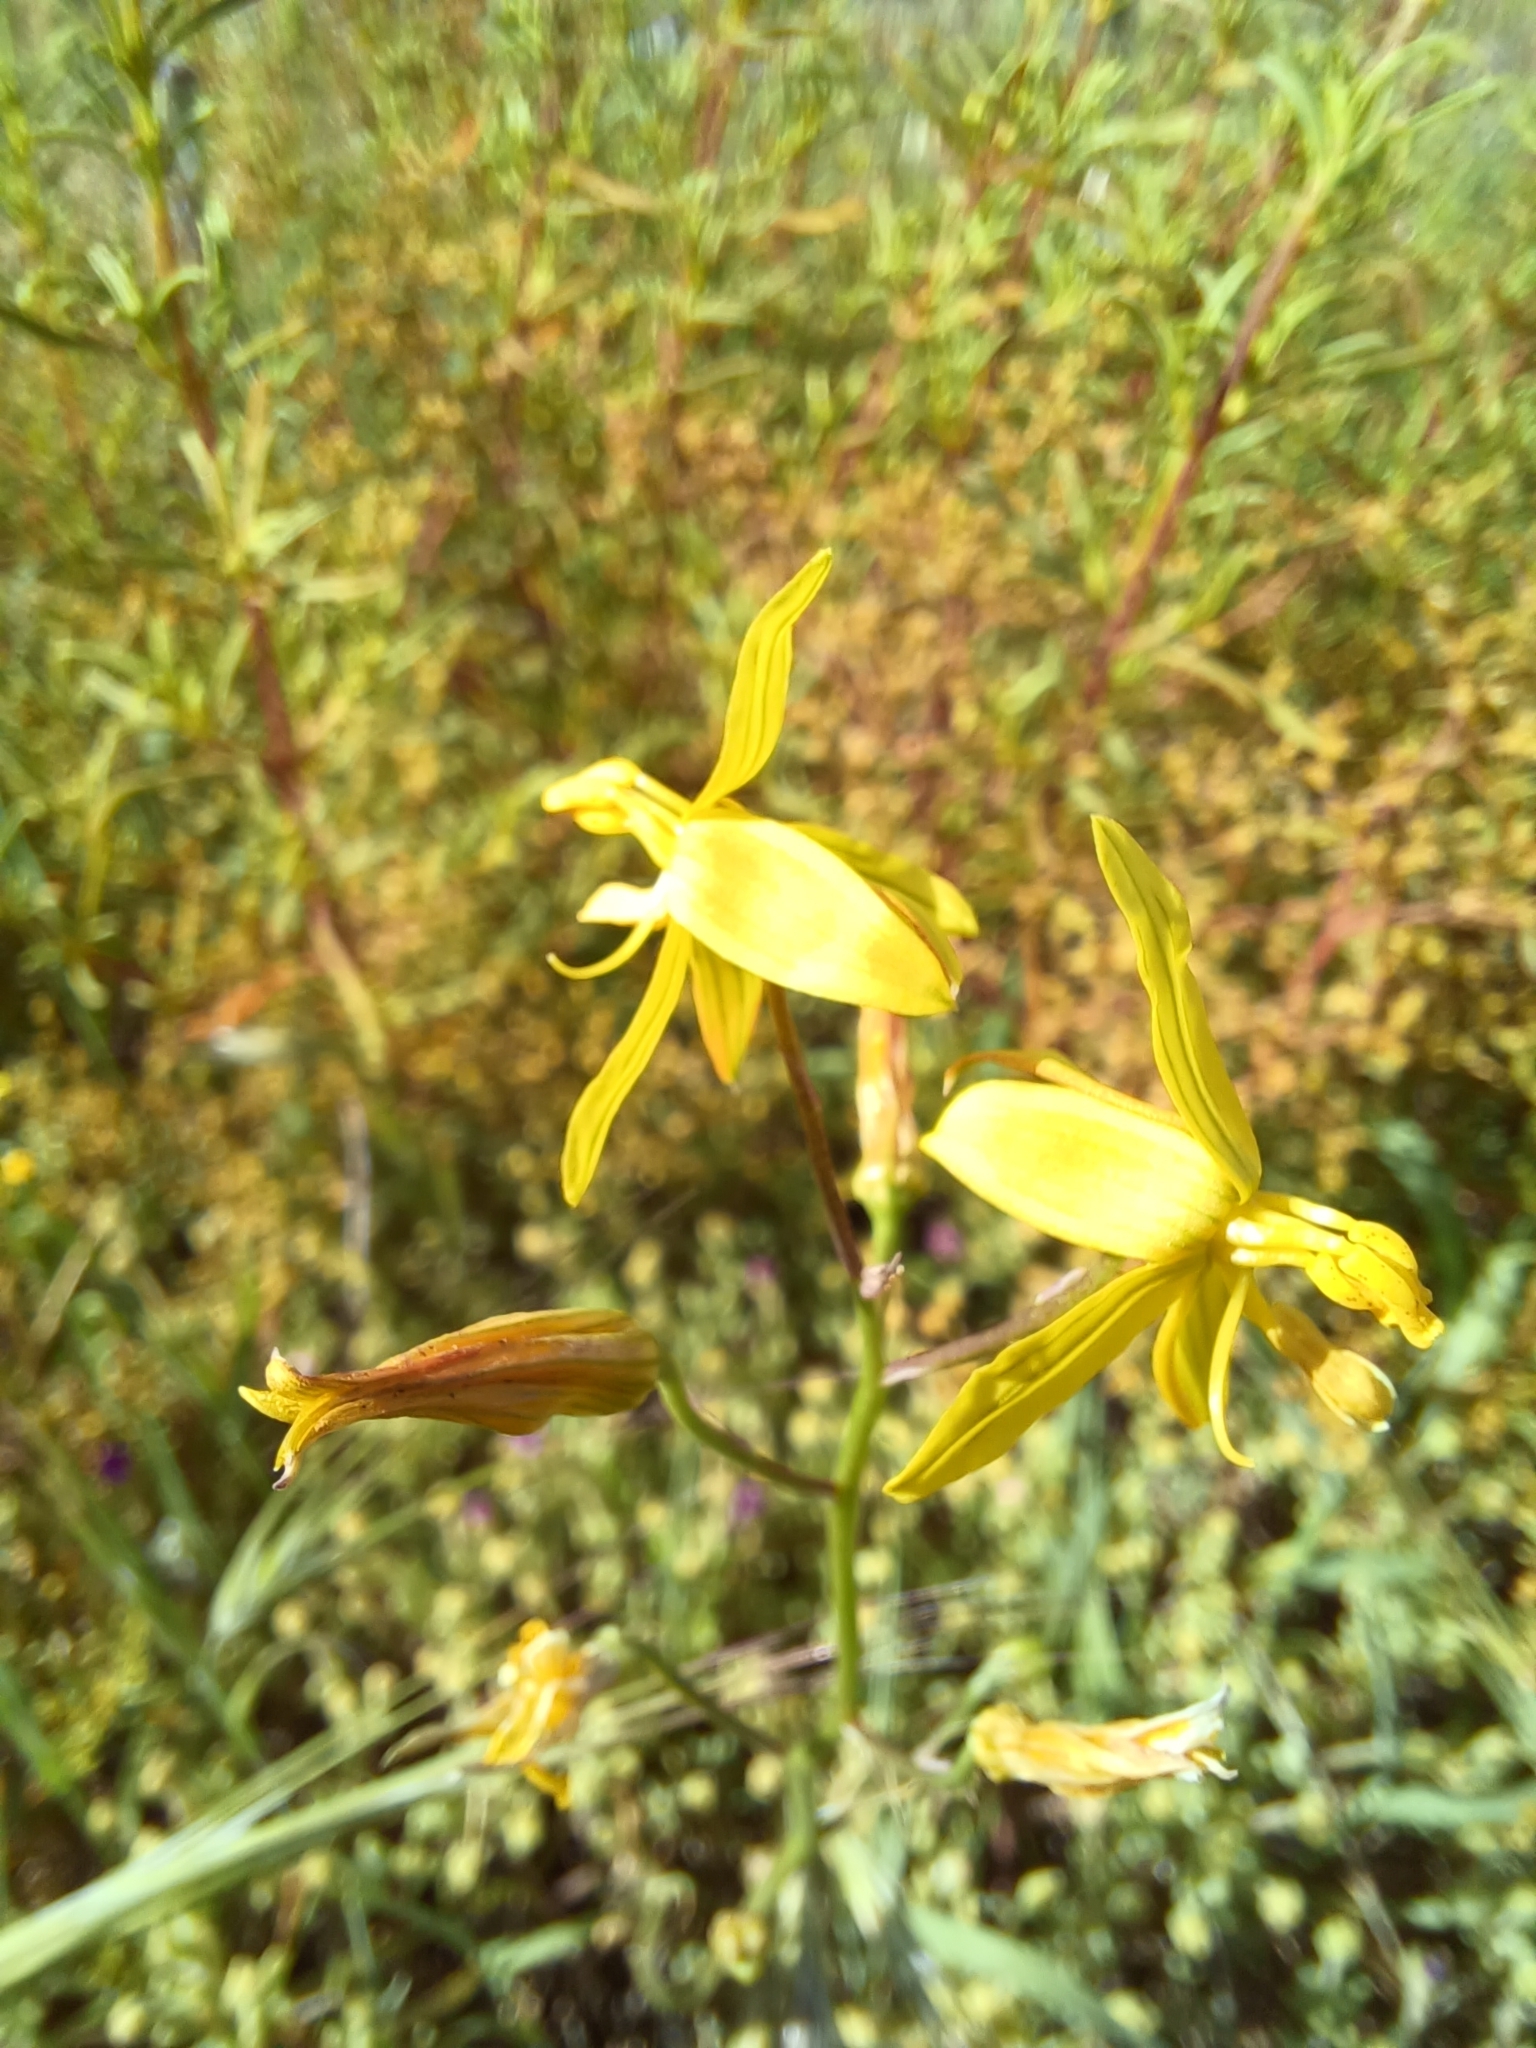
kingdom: Plantae
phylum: Tracheophyta
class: Liliopsida
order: Asparagales
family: Tecophilaeaceae
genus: Cyanella
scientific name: Cyanella lutea
